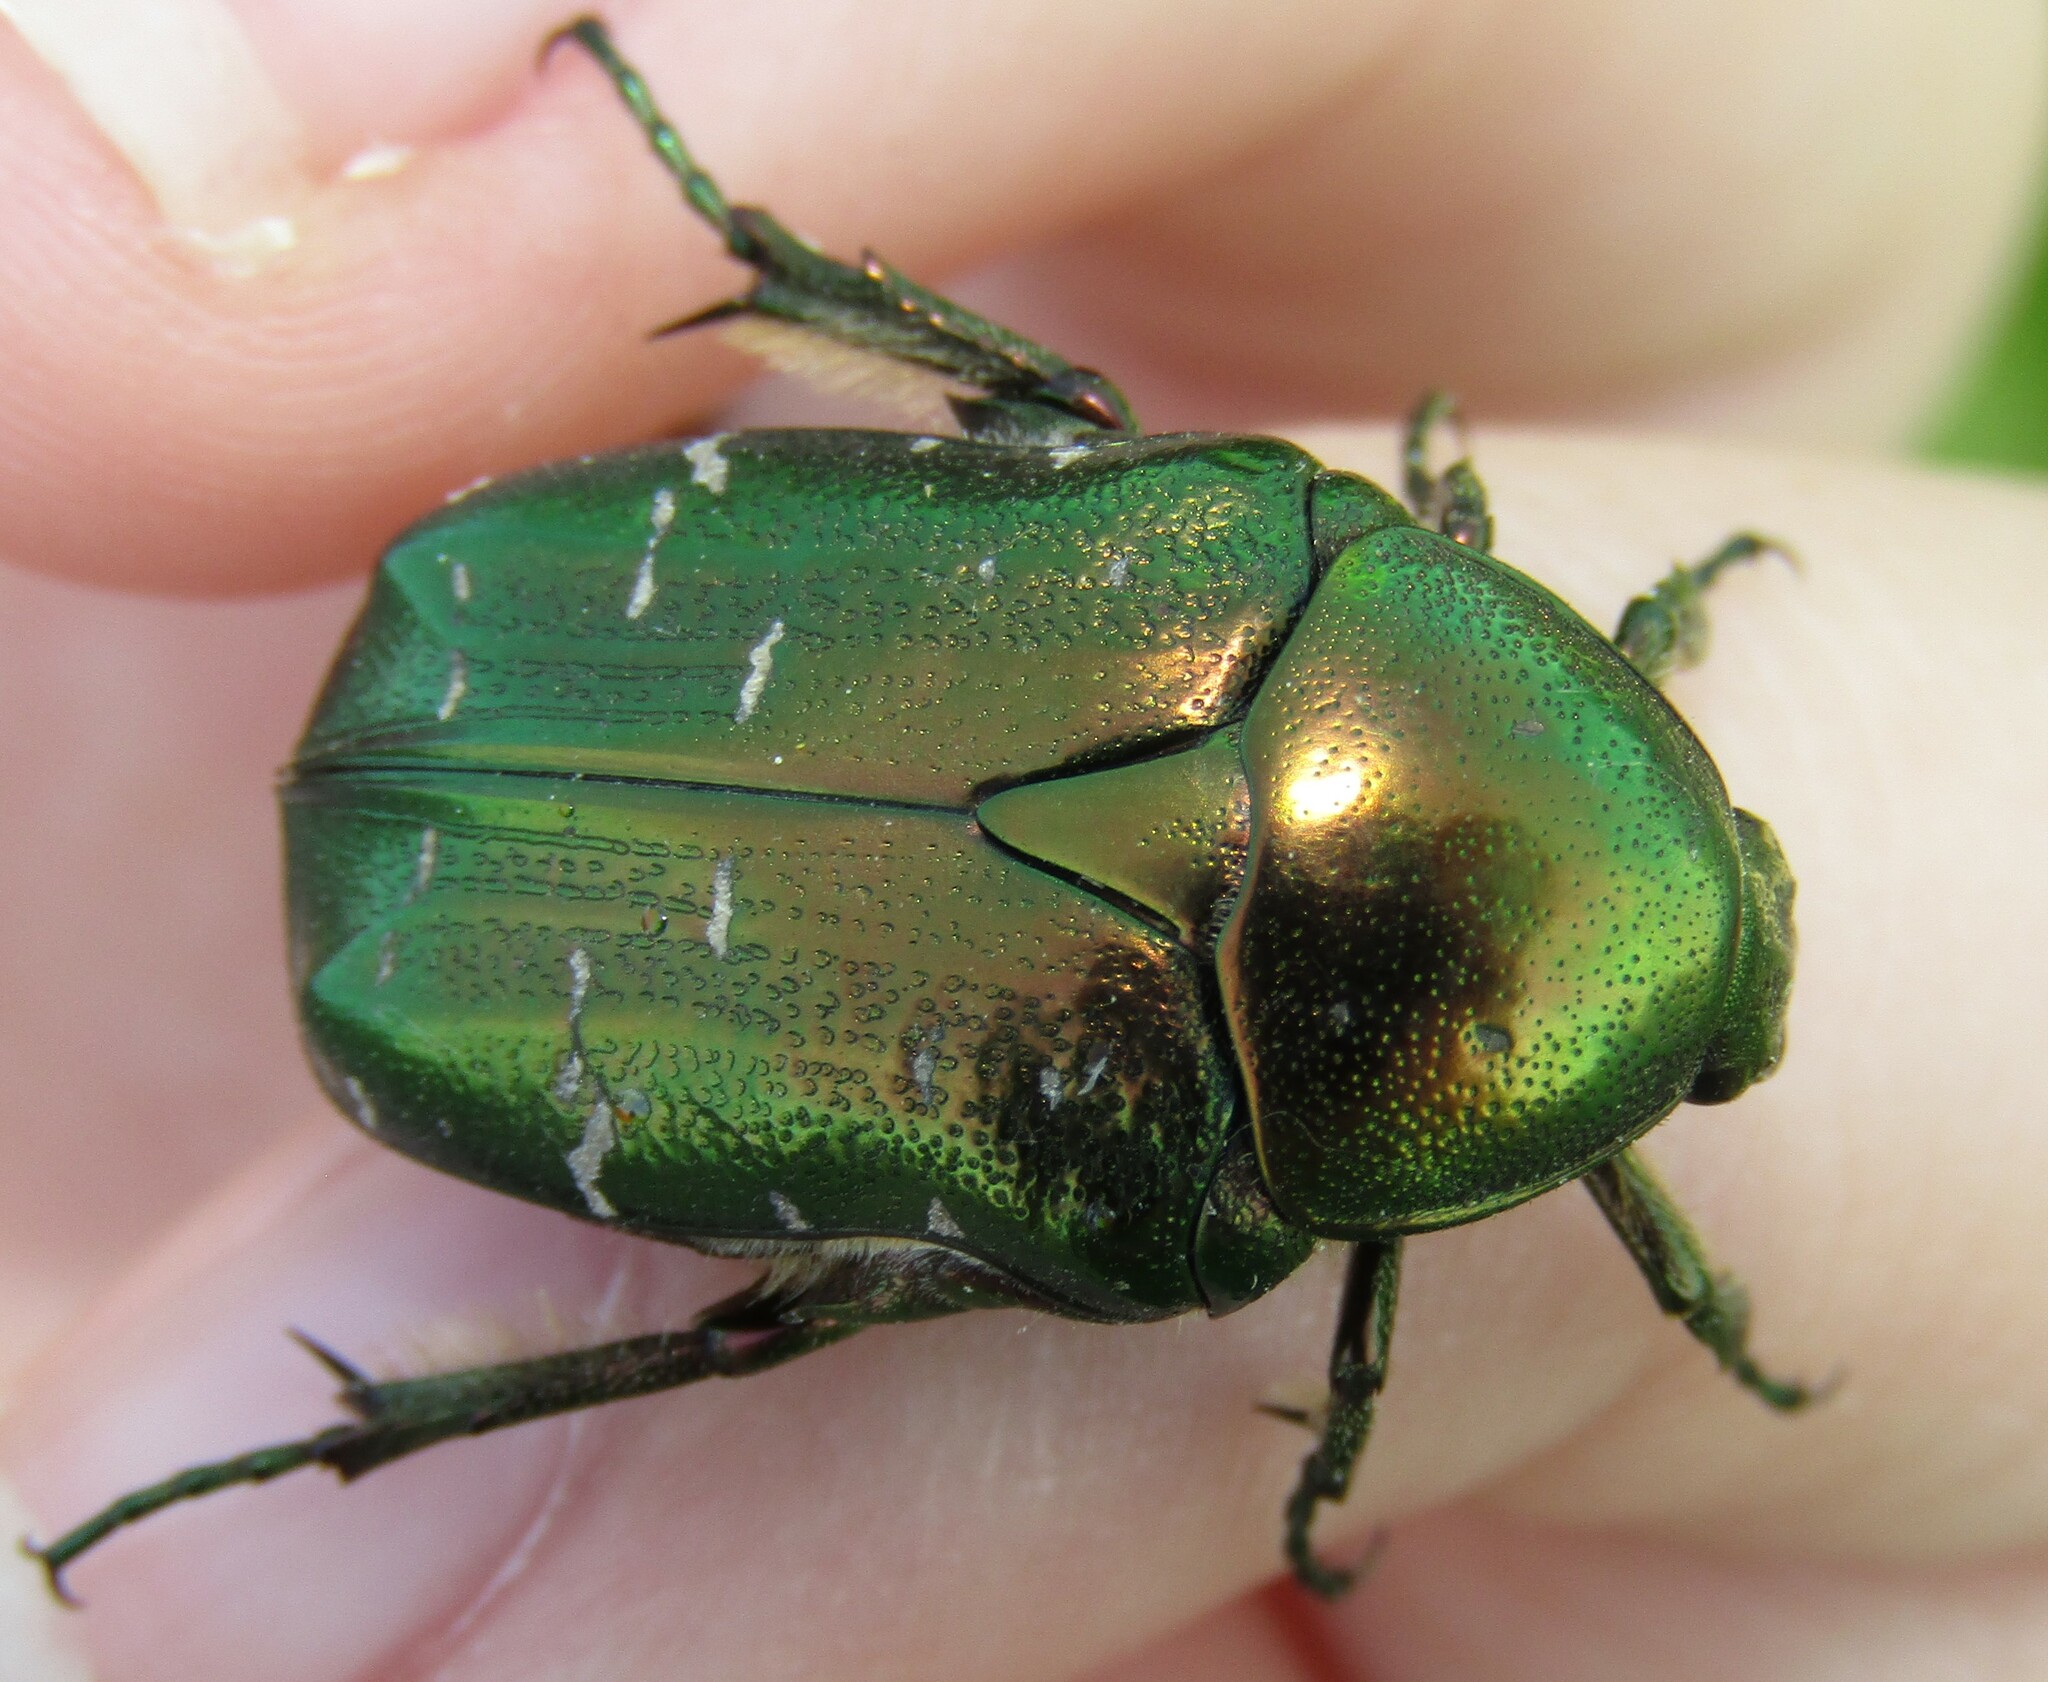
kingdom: Animalia
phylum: Arthropoda
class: Insecta
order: Coleoptera
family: Scarabaeidae
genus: Cetonia
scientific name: Cetonia aurata
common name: Rose chafer
